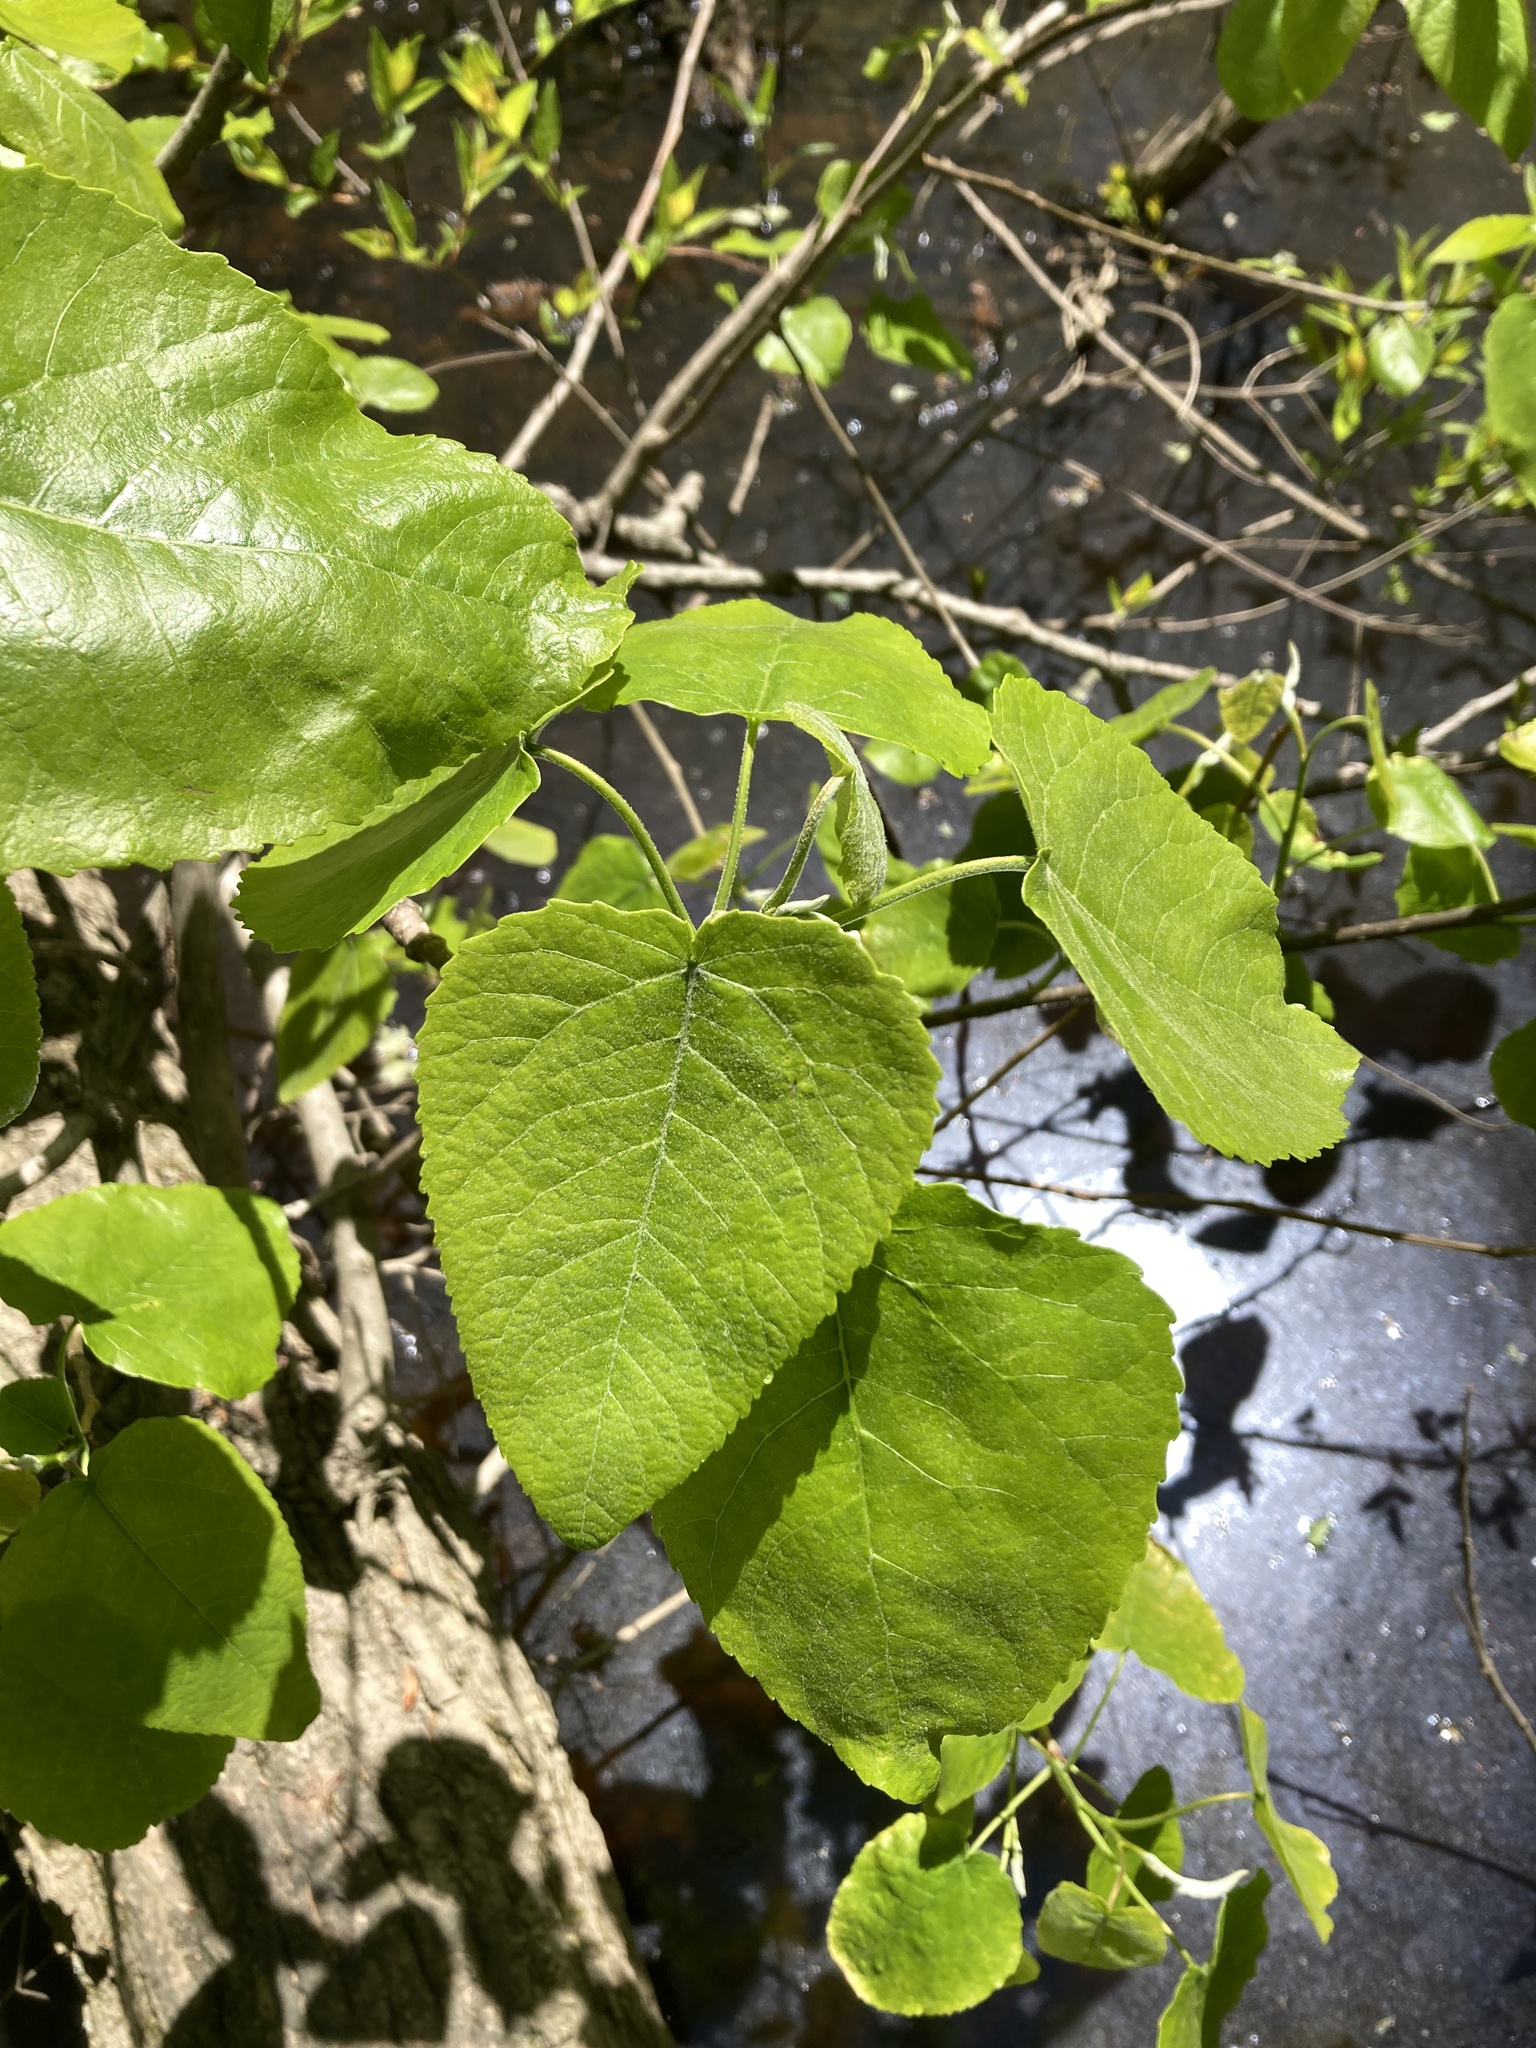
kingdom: Plantae
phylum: Tracheophyta
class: Magnoliopsida
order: Malpighiales
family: Salicaceae
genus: Populus
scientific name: Populus heterophylla
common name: Downy poplar
